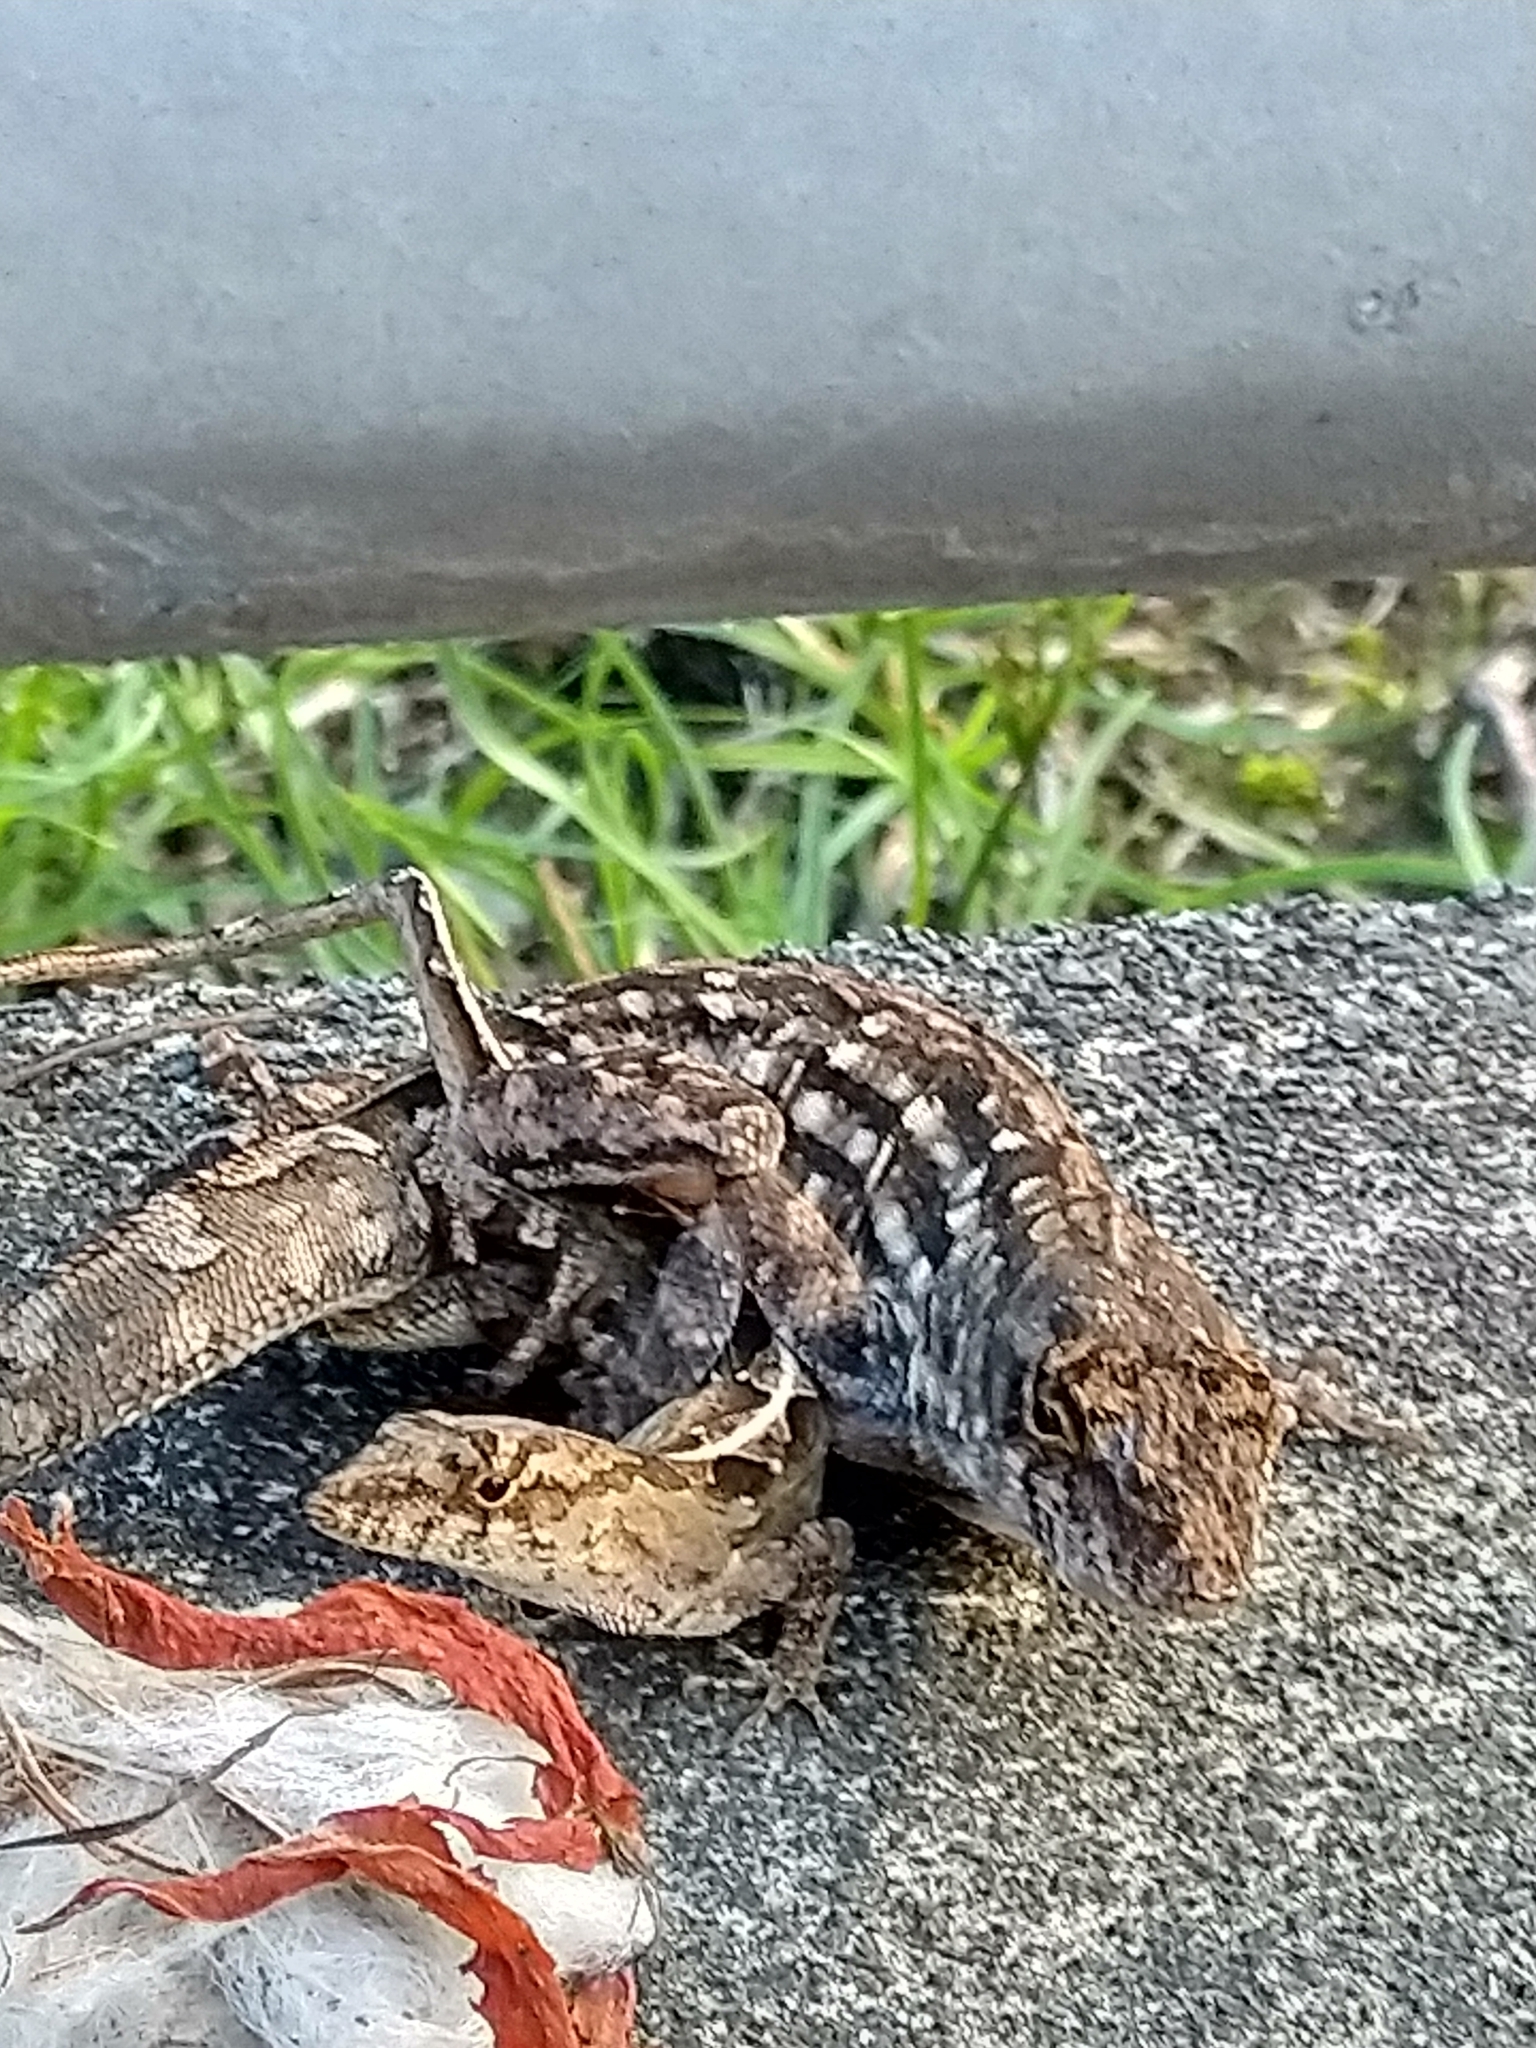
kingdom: Animalia
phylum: Chordata
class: Squamata
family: Dactyloidae
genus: Anolis
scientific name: Anolis sagrei
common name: Brown anole
